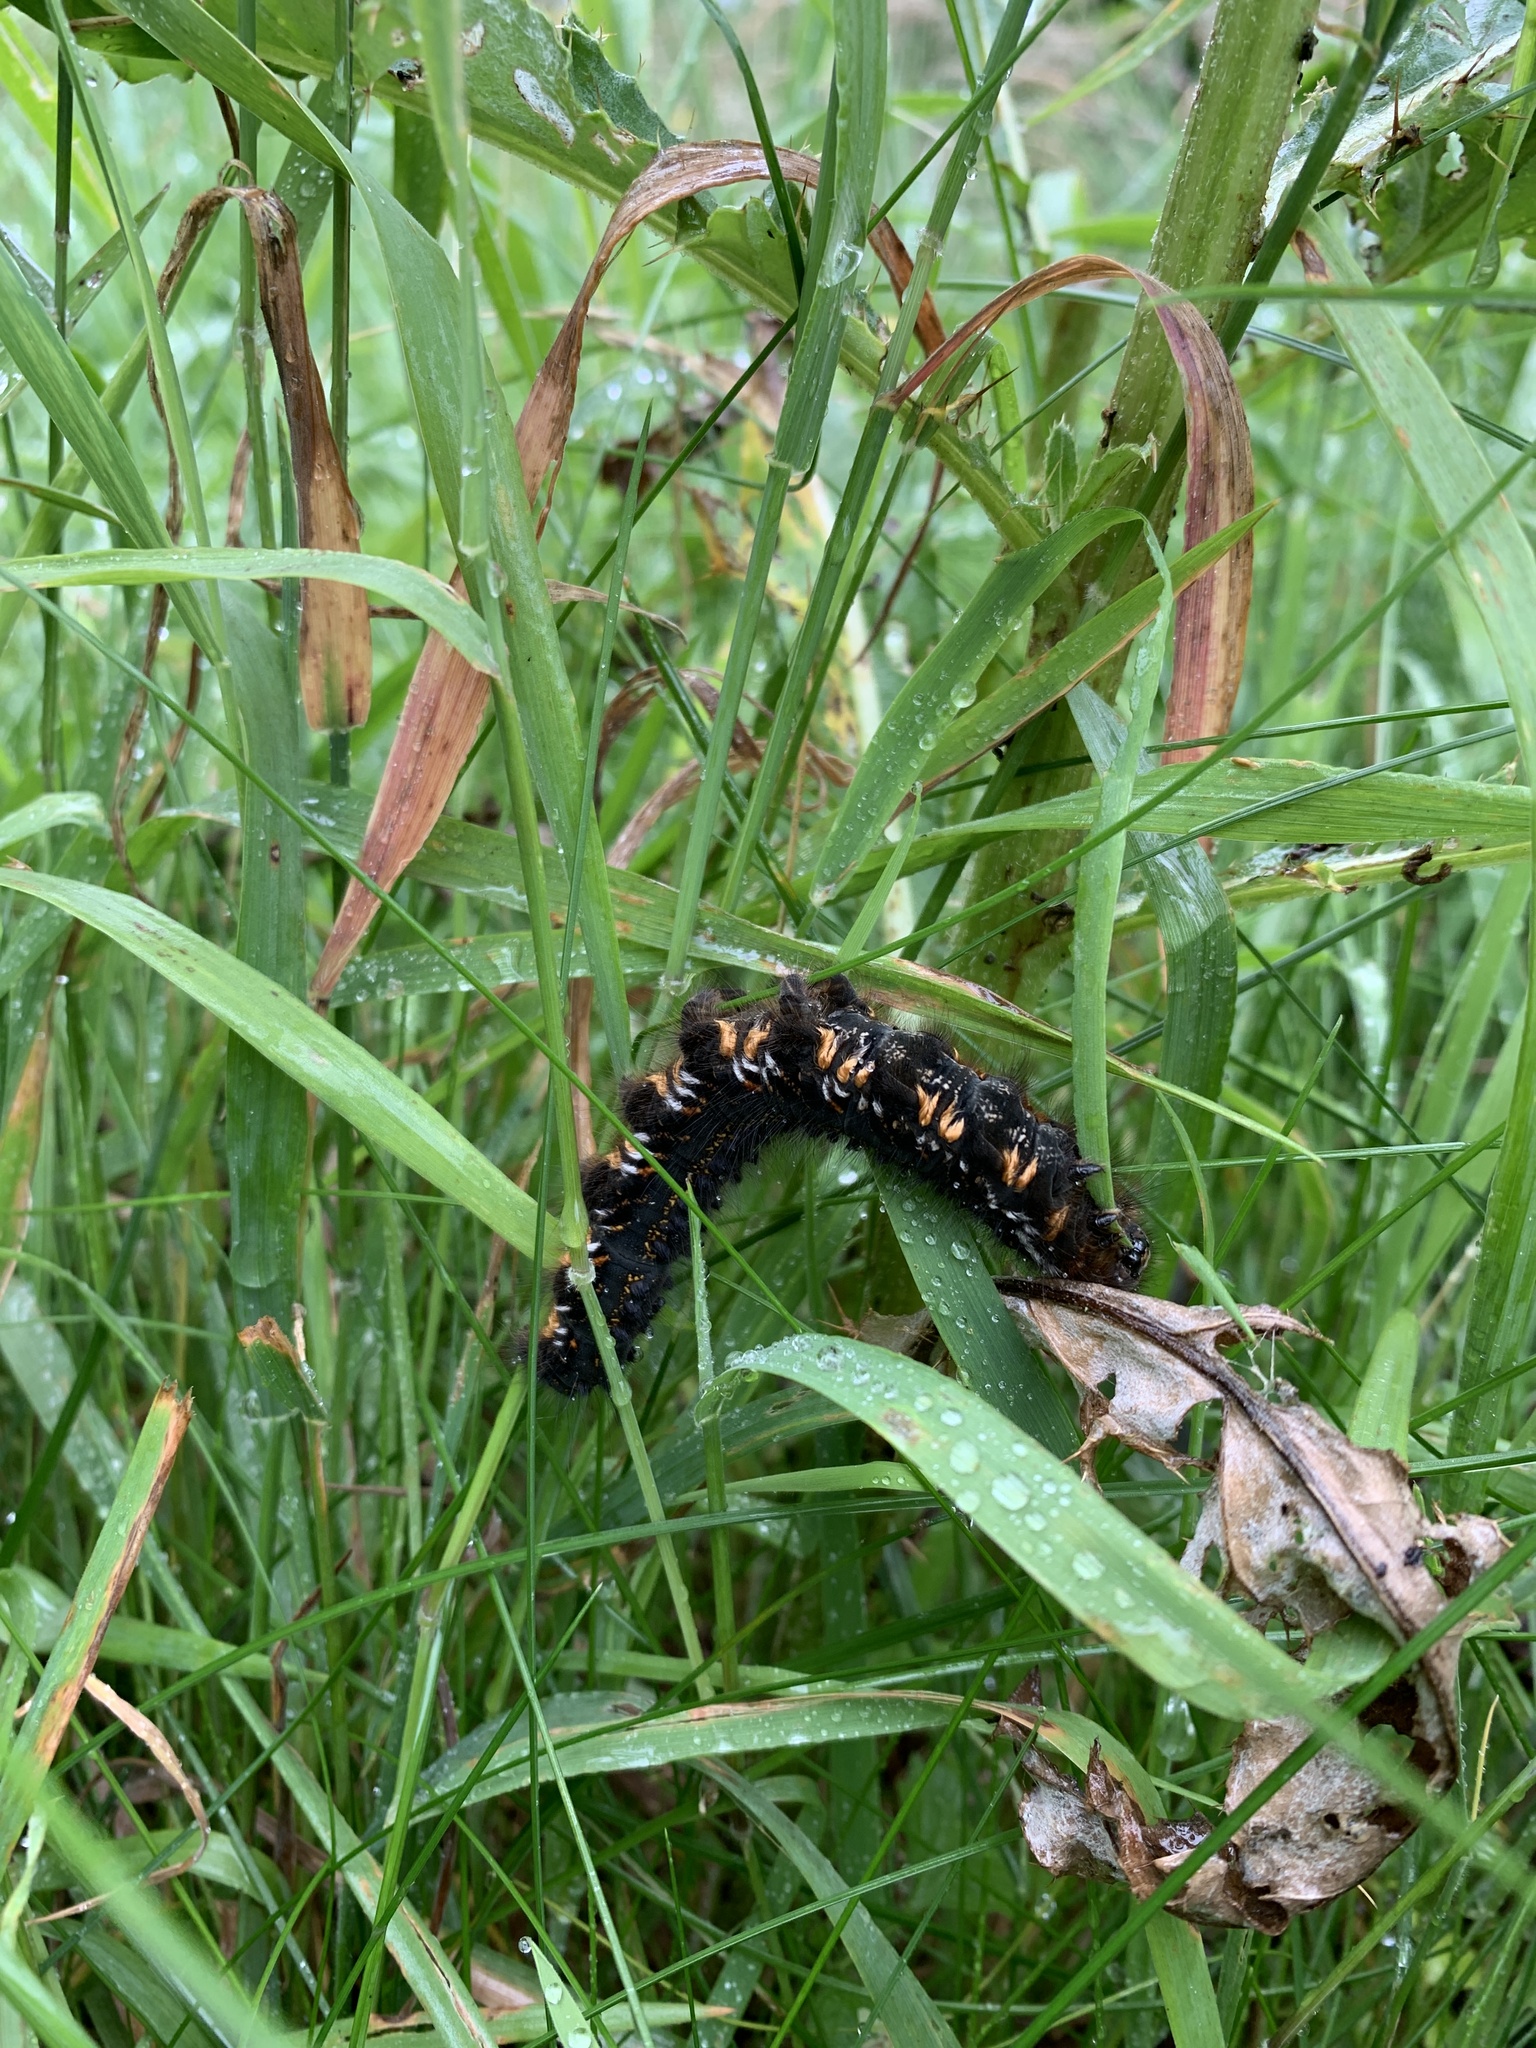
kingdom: Animalia
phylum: Arthropoda
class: Insecta
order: Lepidoptera
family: Lasiocampidae
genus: Euthrix
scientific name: Euthrix potatoria
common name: Drinker
